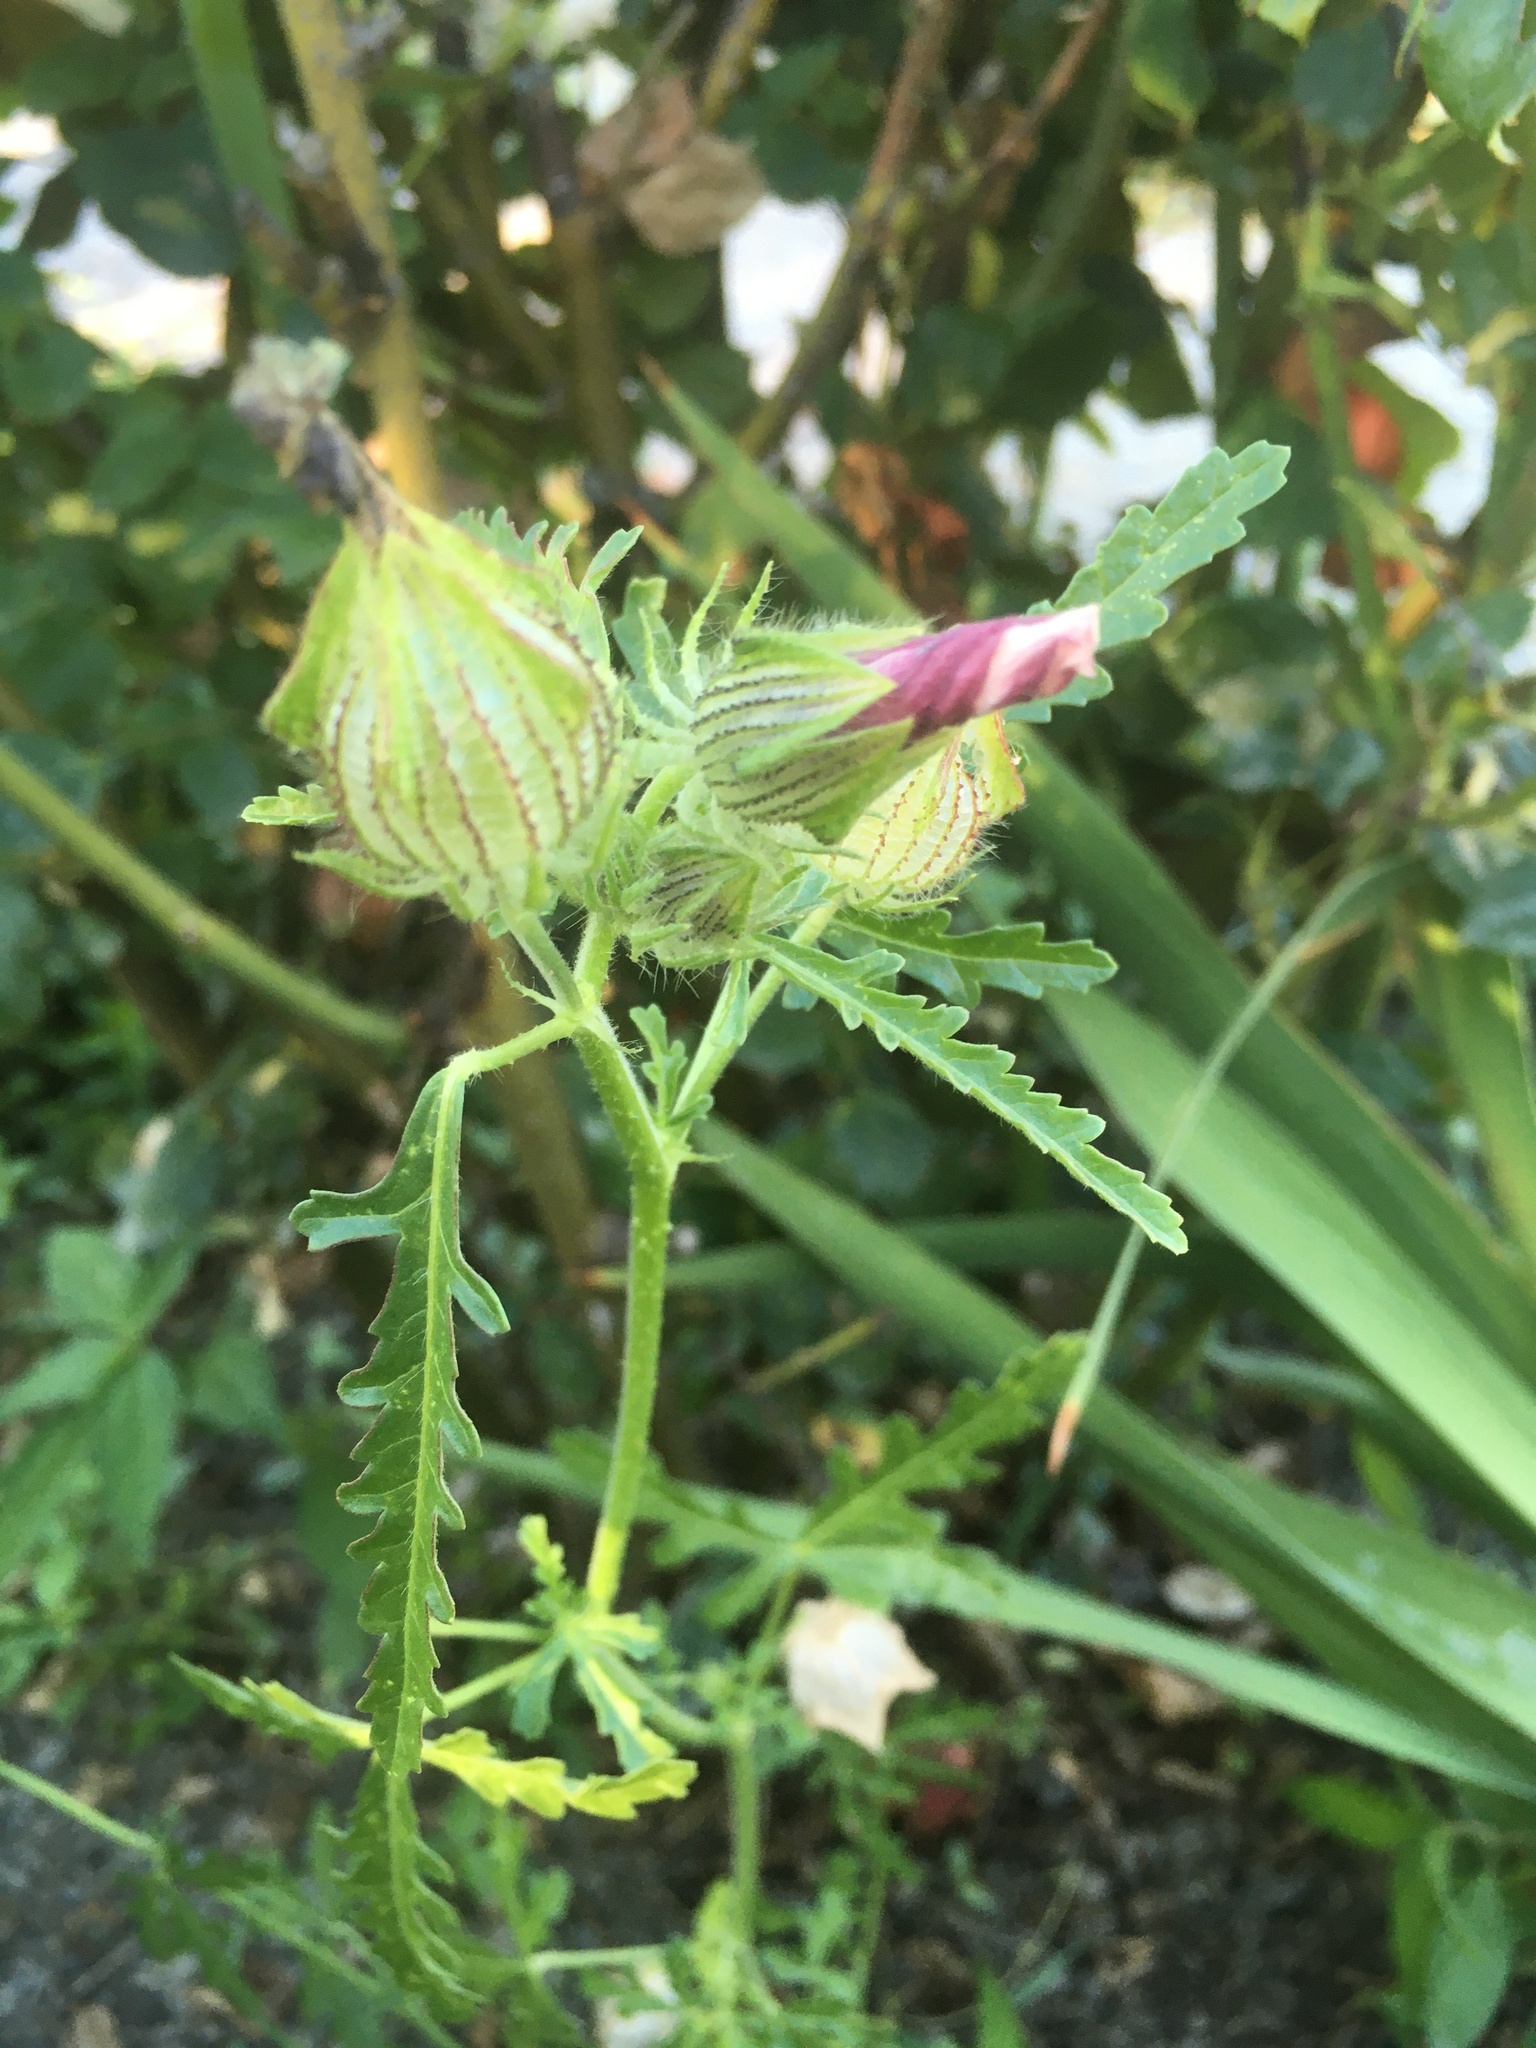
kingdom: Plantae
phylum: Tracheophyta
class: Magnoliopsida
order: Malvales
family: Malvaceae
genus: Hibiscus
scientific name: Hibiscus trionum
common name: Bladder ketmia
